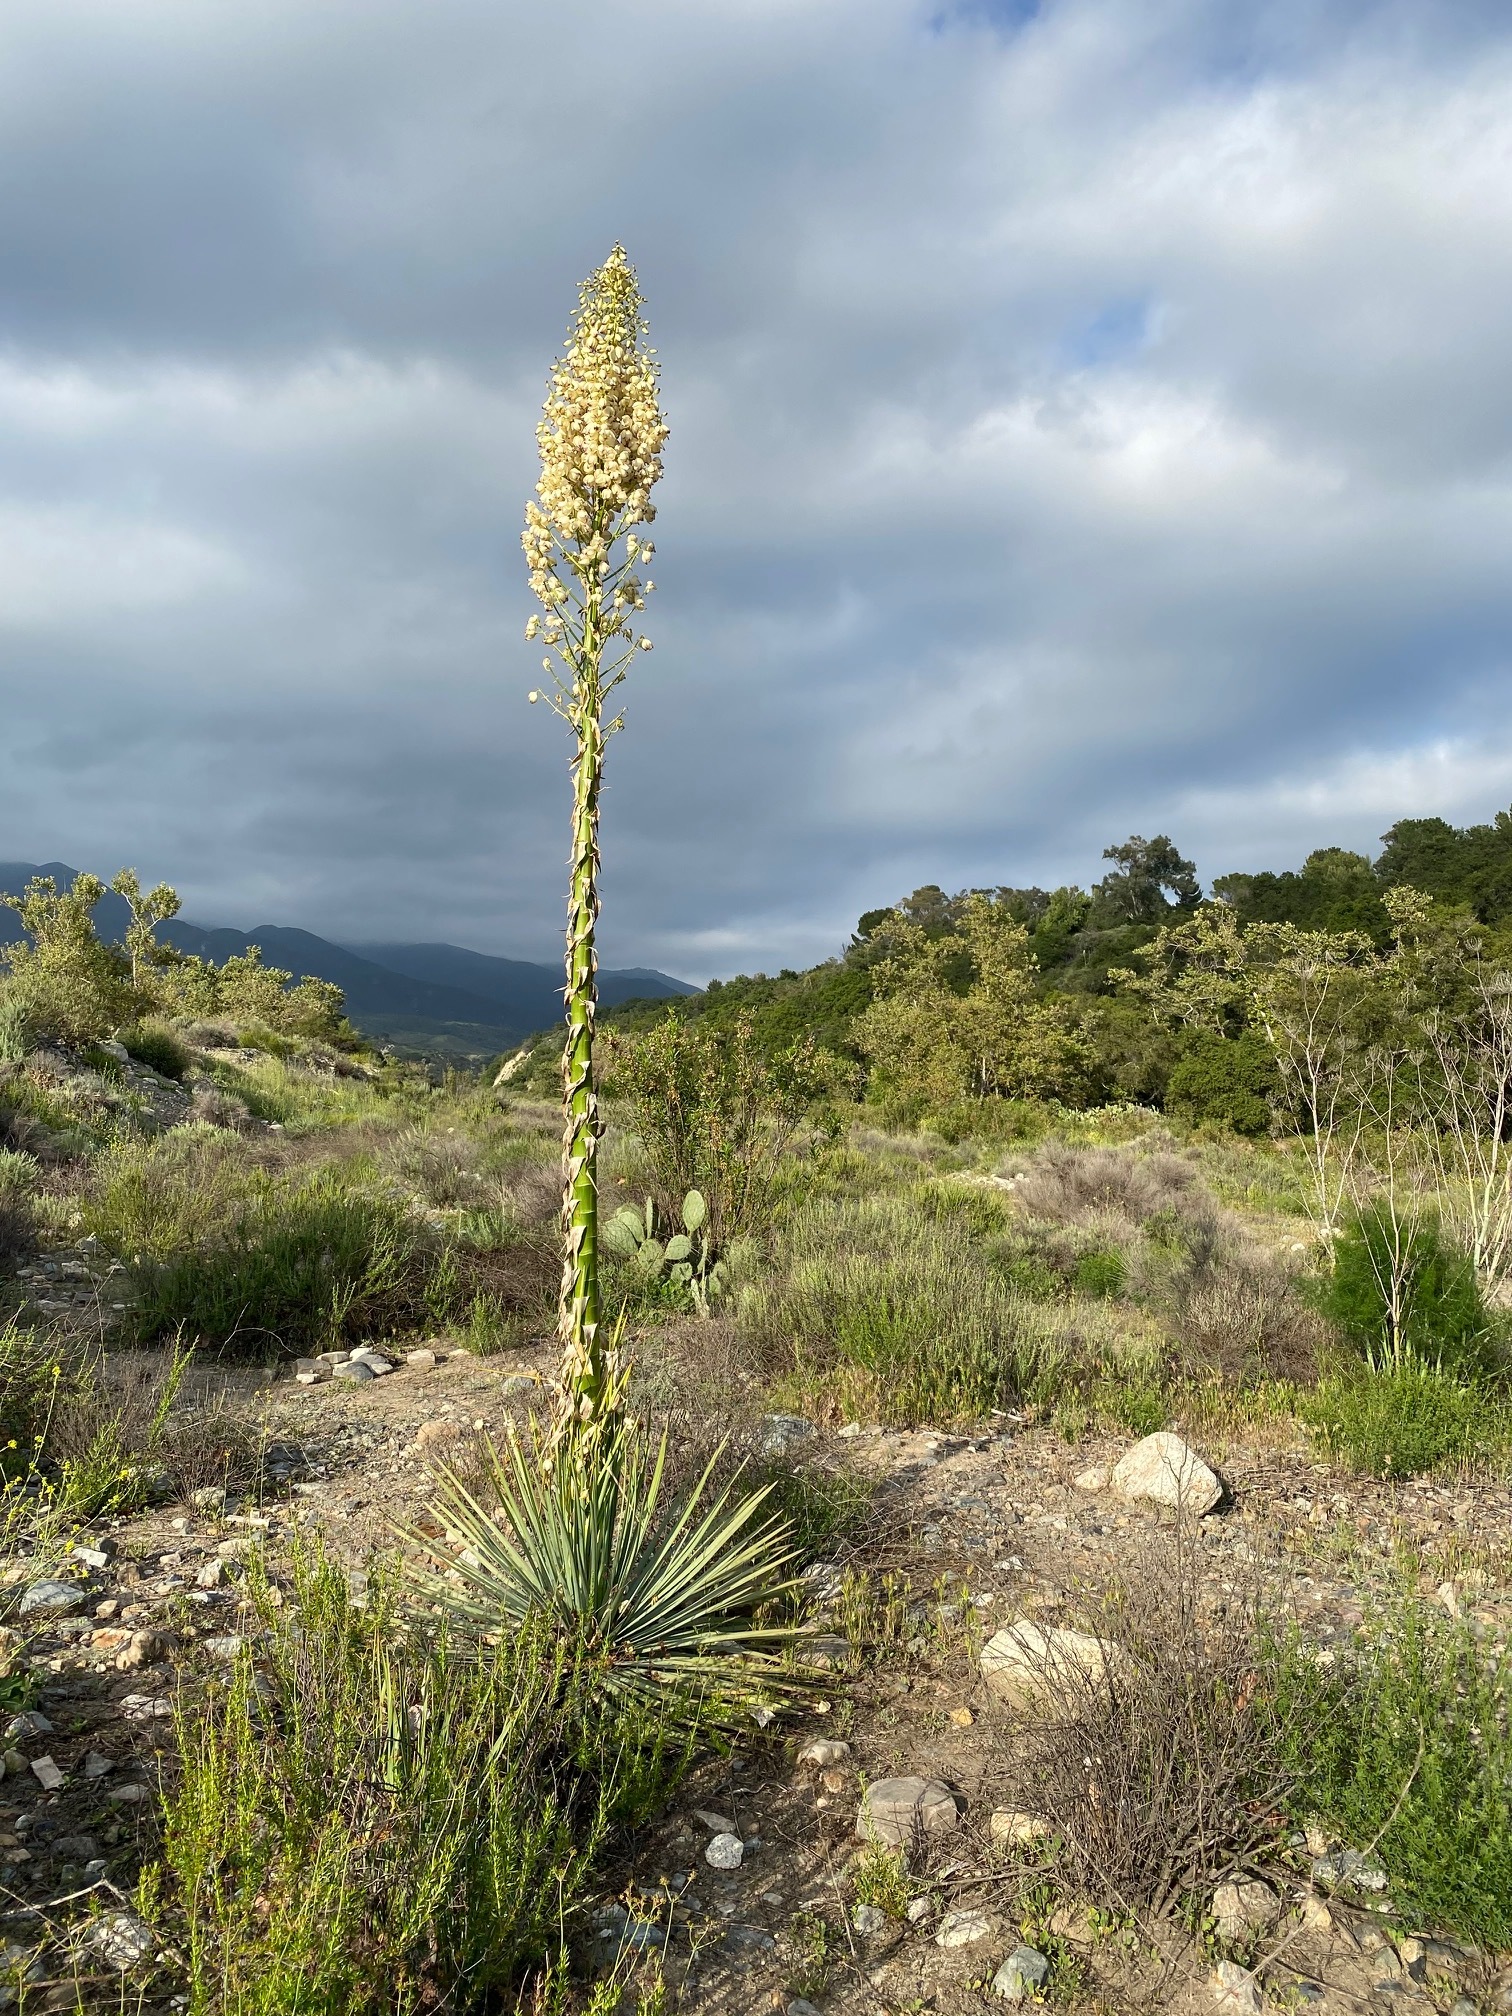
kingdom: Plantae
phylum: Tracheophyta
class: Liliopsida
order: Asparagales
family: Asparagaceae
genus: Hesperoyucca
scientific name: Hesperoyucca whipplei
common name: Our lord's-candle
